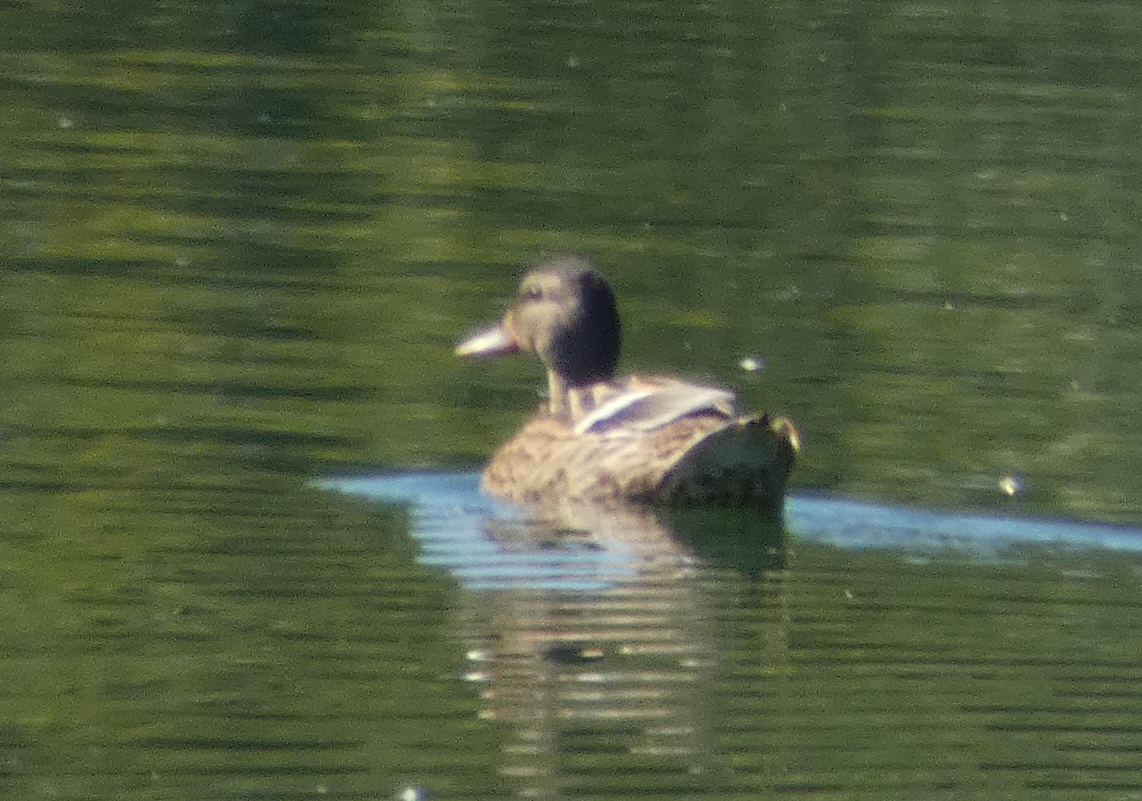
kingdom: Animalia
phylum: Chordata
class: Aves
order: Anseriformes
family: Anatidae
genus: Anas
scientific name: Anas platyrhynchos
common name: Mallard
